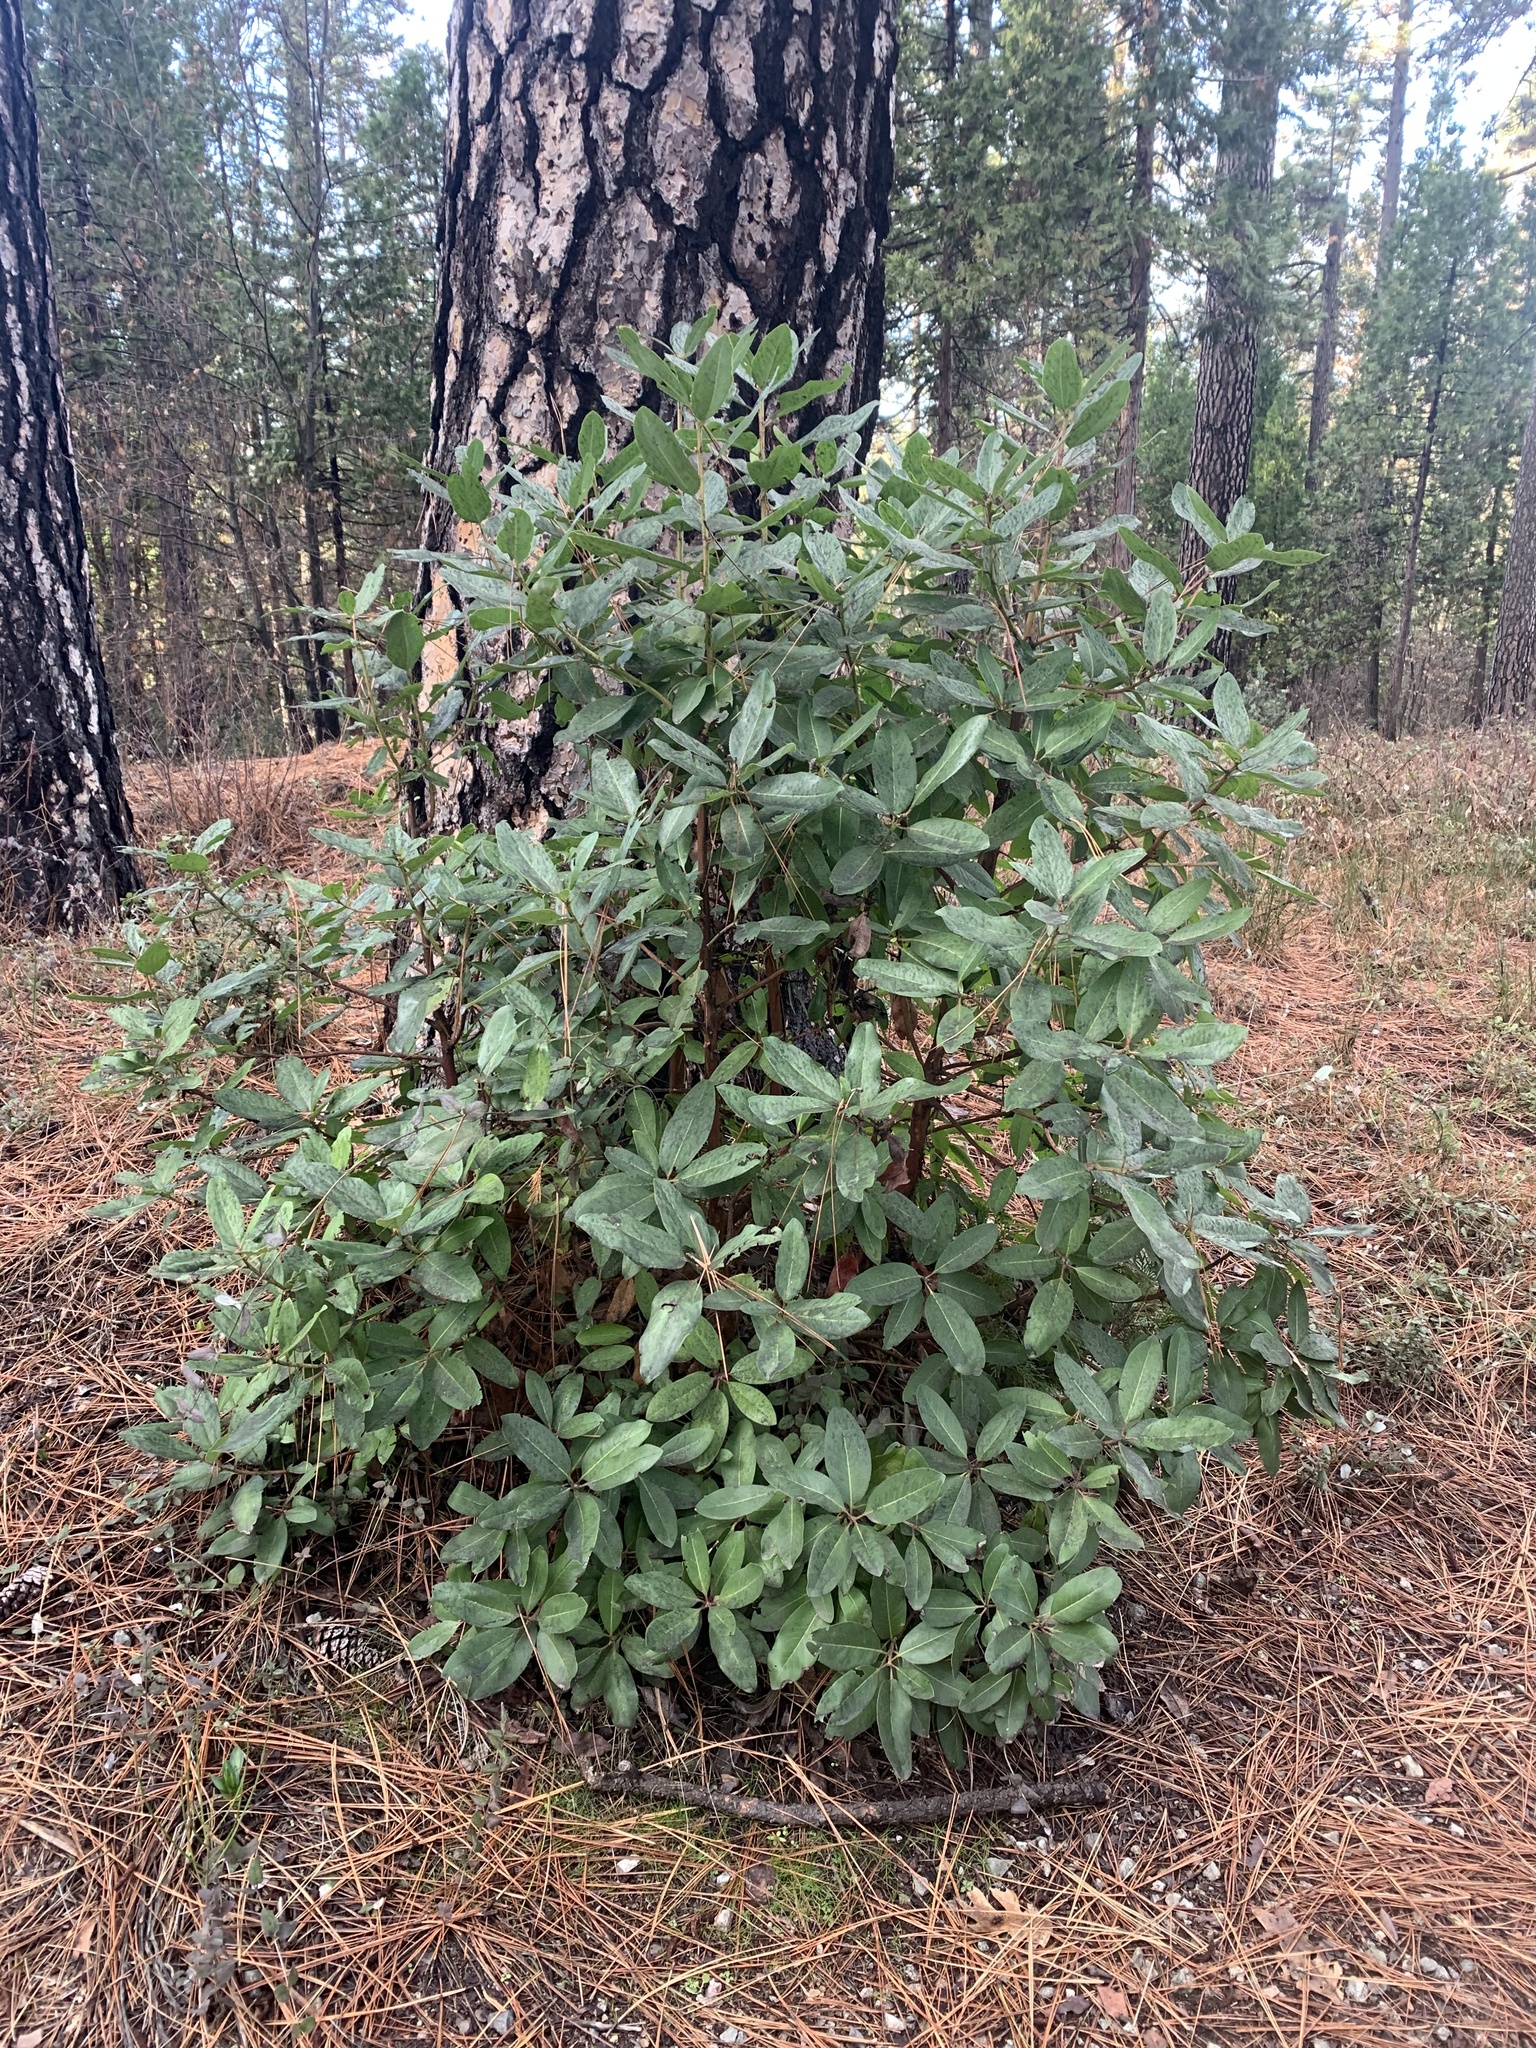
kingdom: Plantae
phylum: Tracheophyta
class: Magnoliopsida
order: Ericales
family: Ericaceae
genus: Arbutus
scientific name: Arbutus menziesii
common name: Pacific madrone
